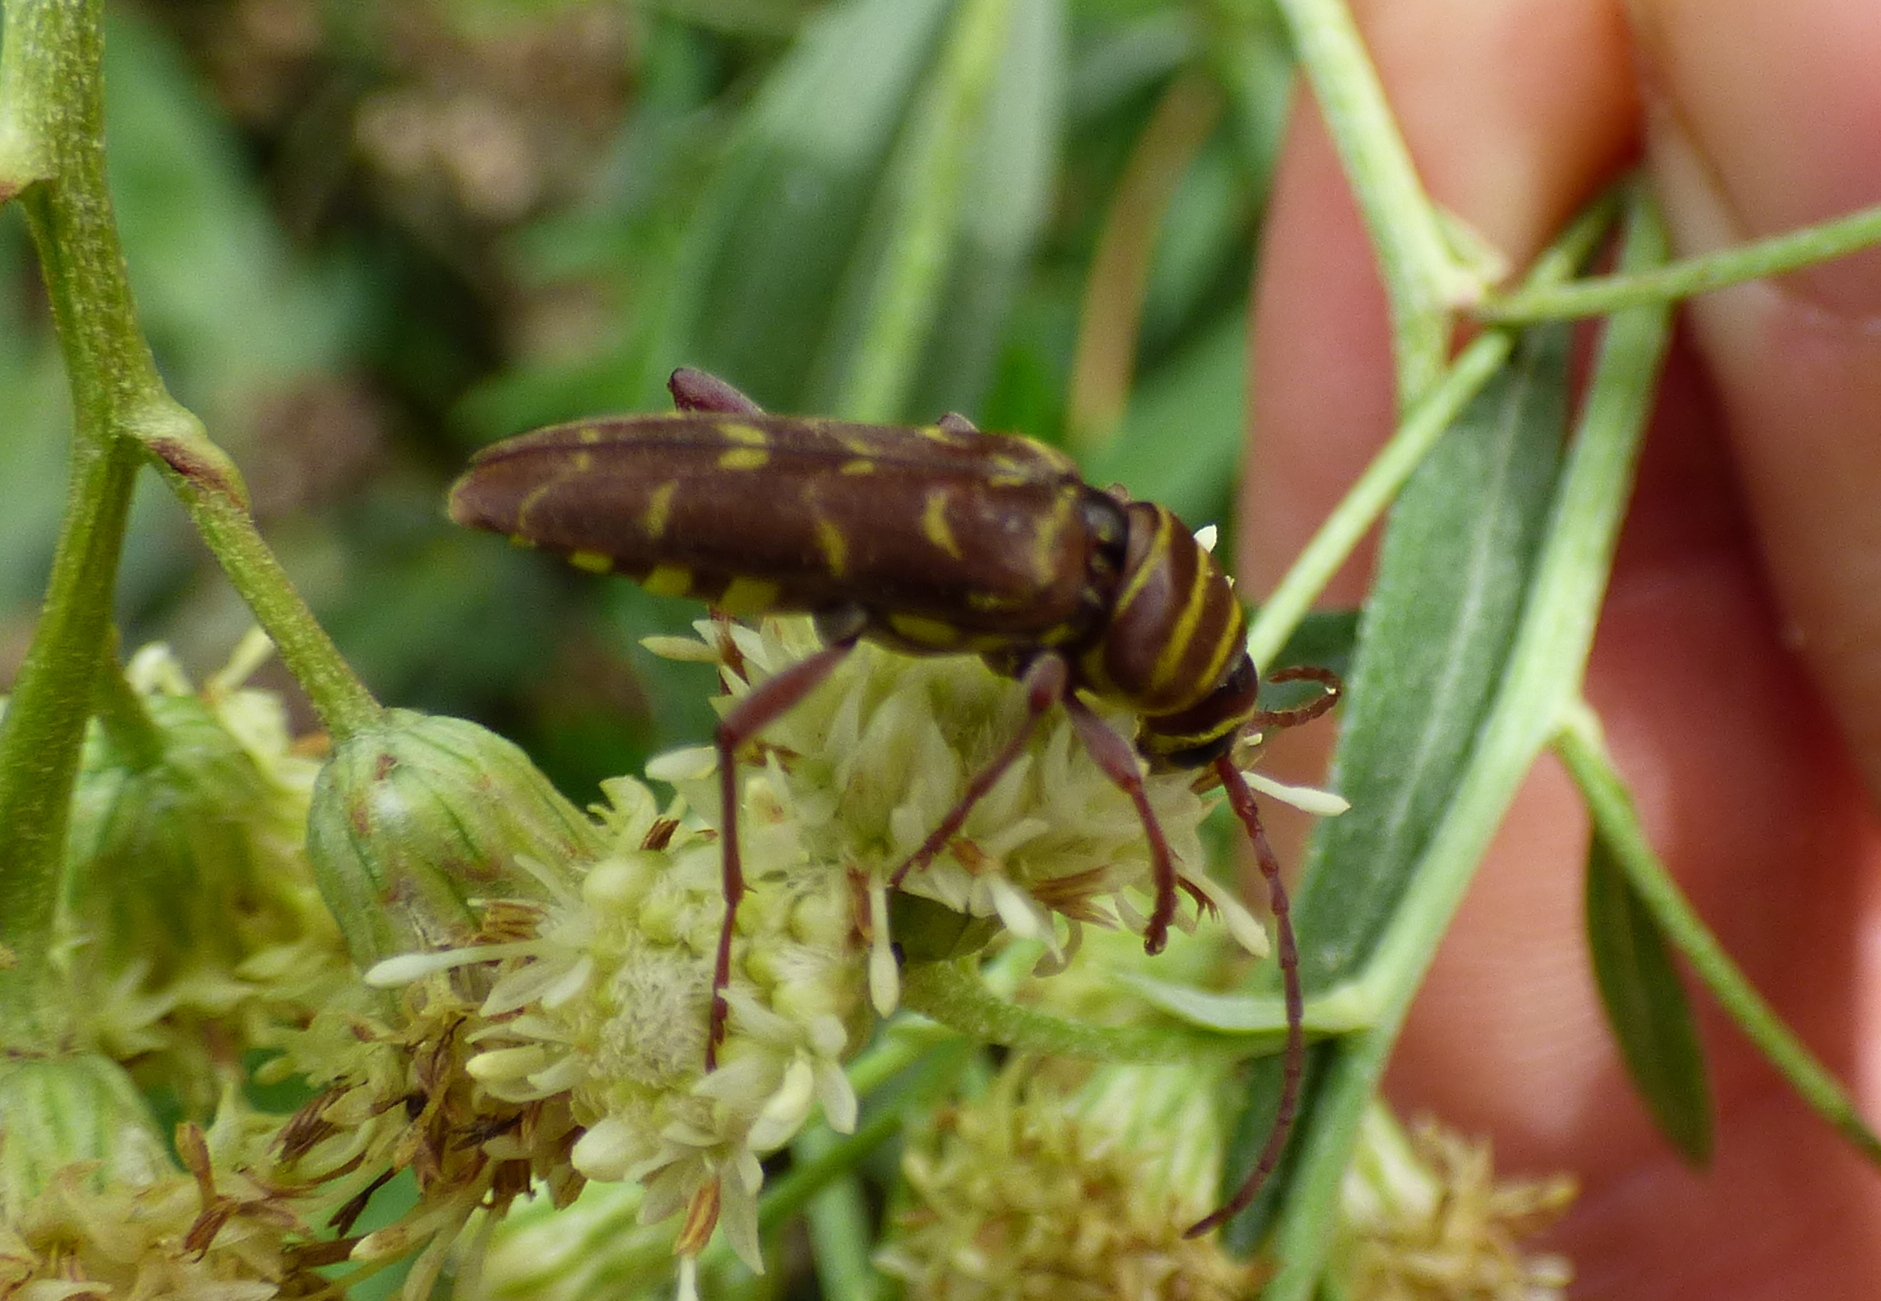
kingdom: Animalia
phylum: Arthropoda
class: Insecta
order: Coleoptera
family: Cerambycidae
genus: Megacyllene
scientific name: Megacyllene castanea
